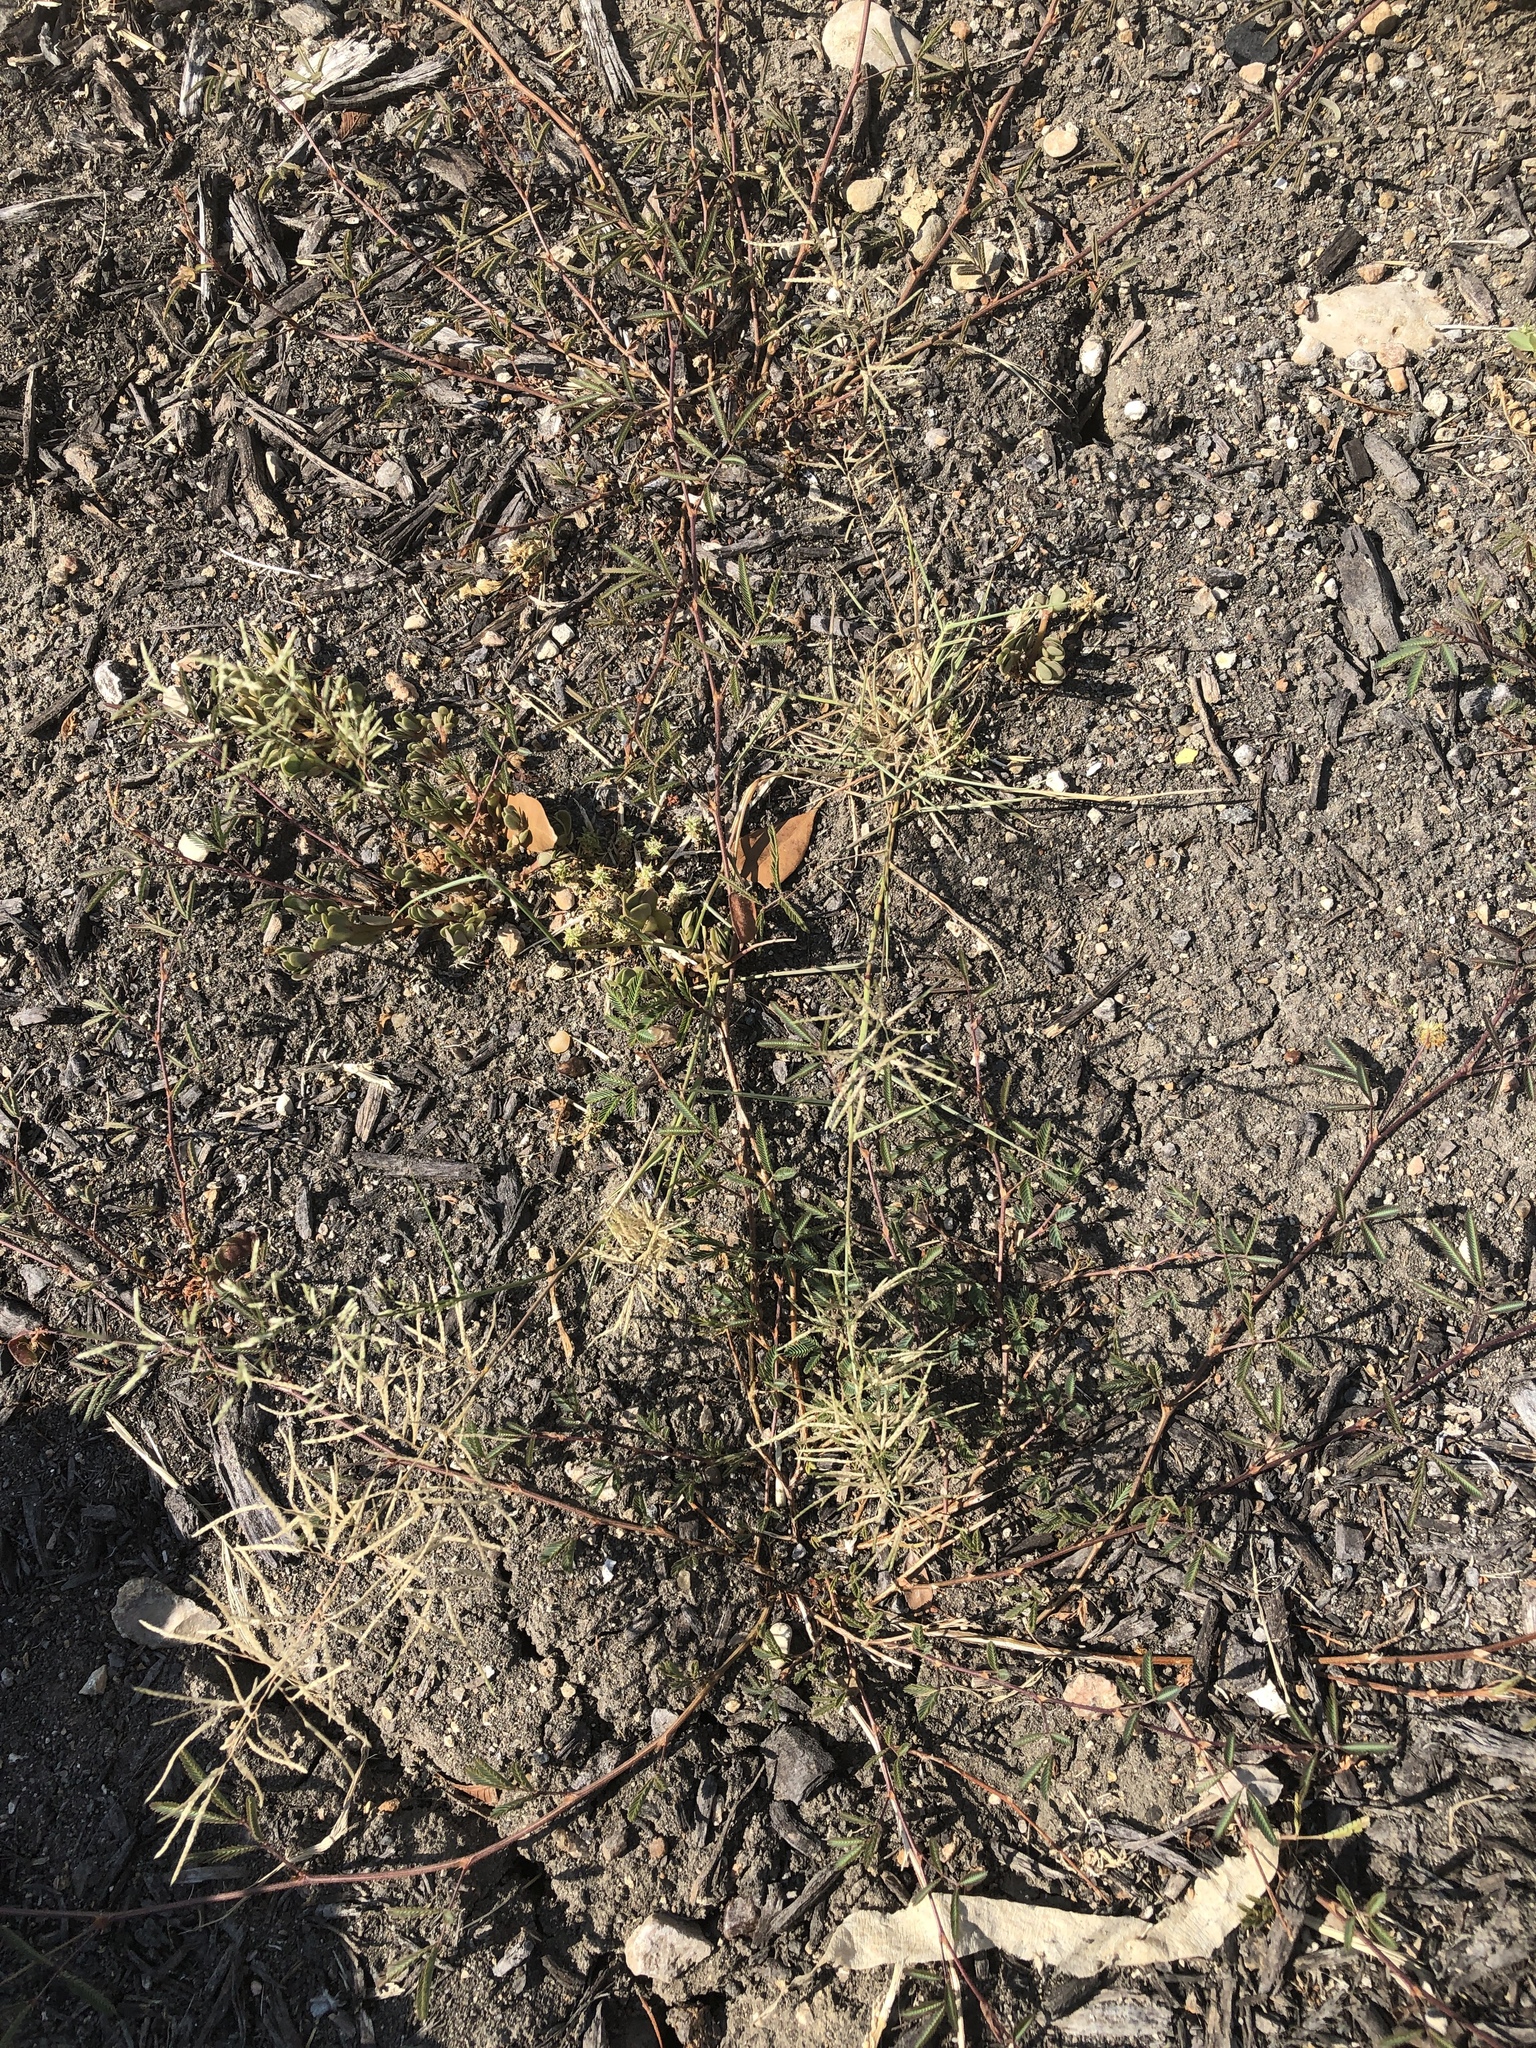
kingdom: Plantae
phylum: Tracheophyta
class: Liliopsida
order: Poales
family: Poaceae
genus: Eragrostis
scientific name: Eragrostis pilosa
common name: Indian lovegrass
